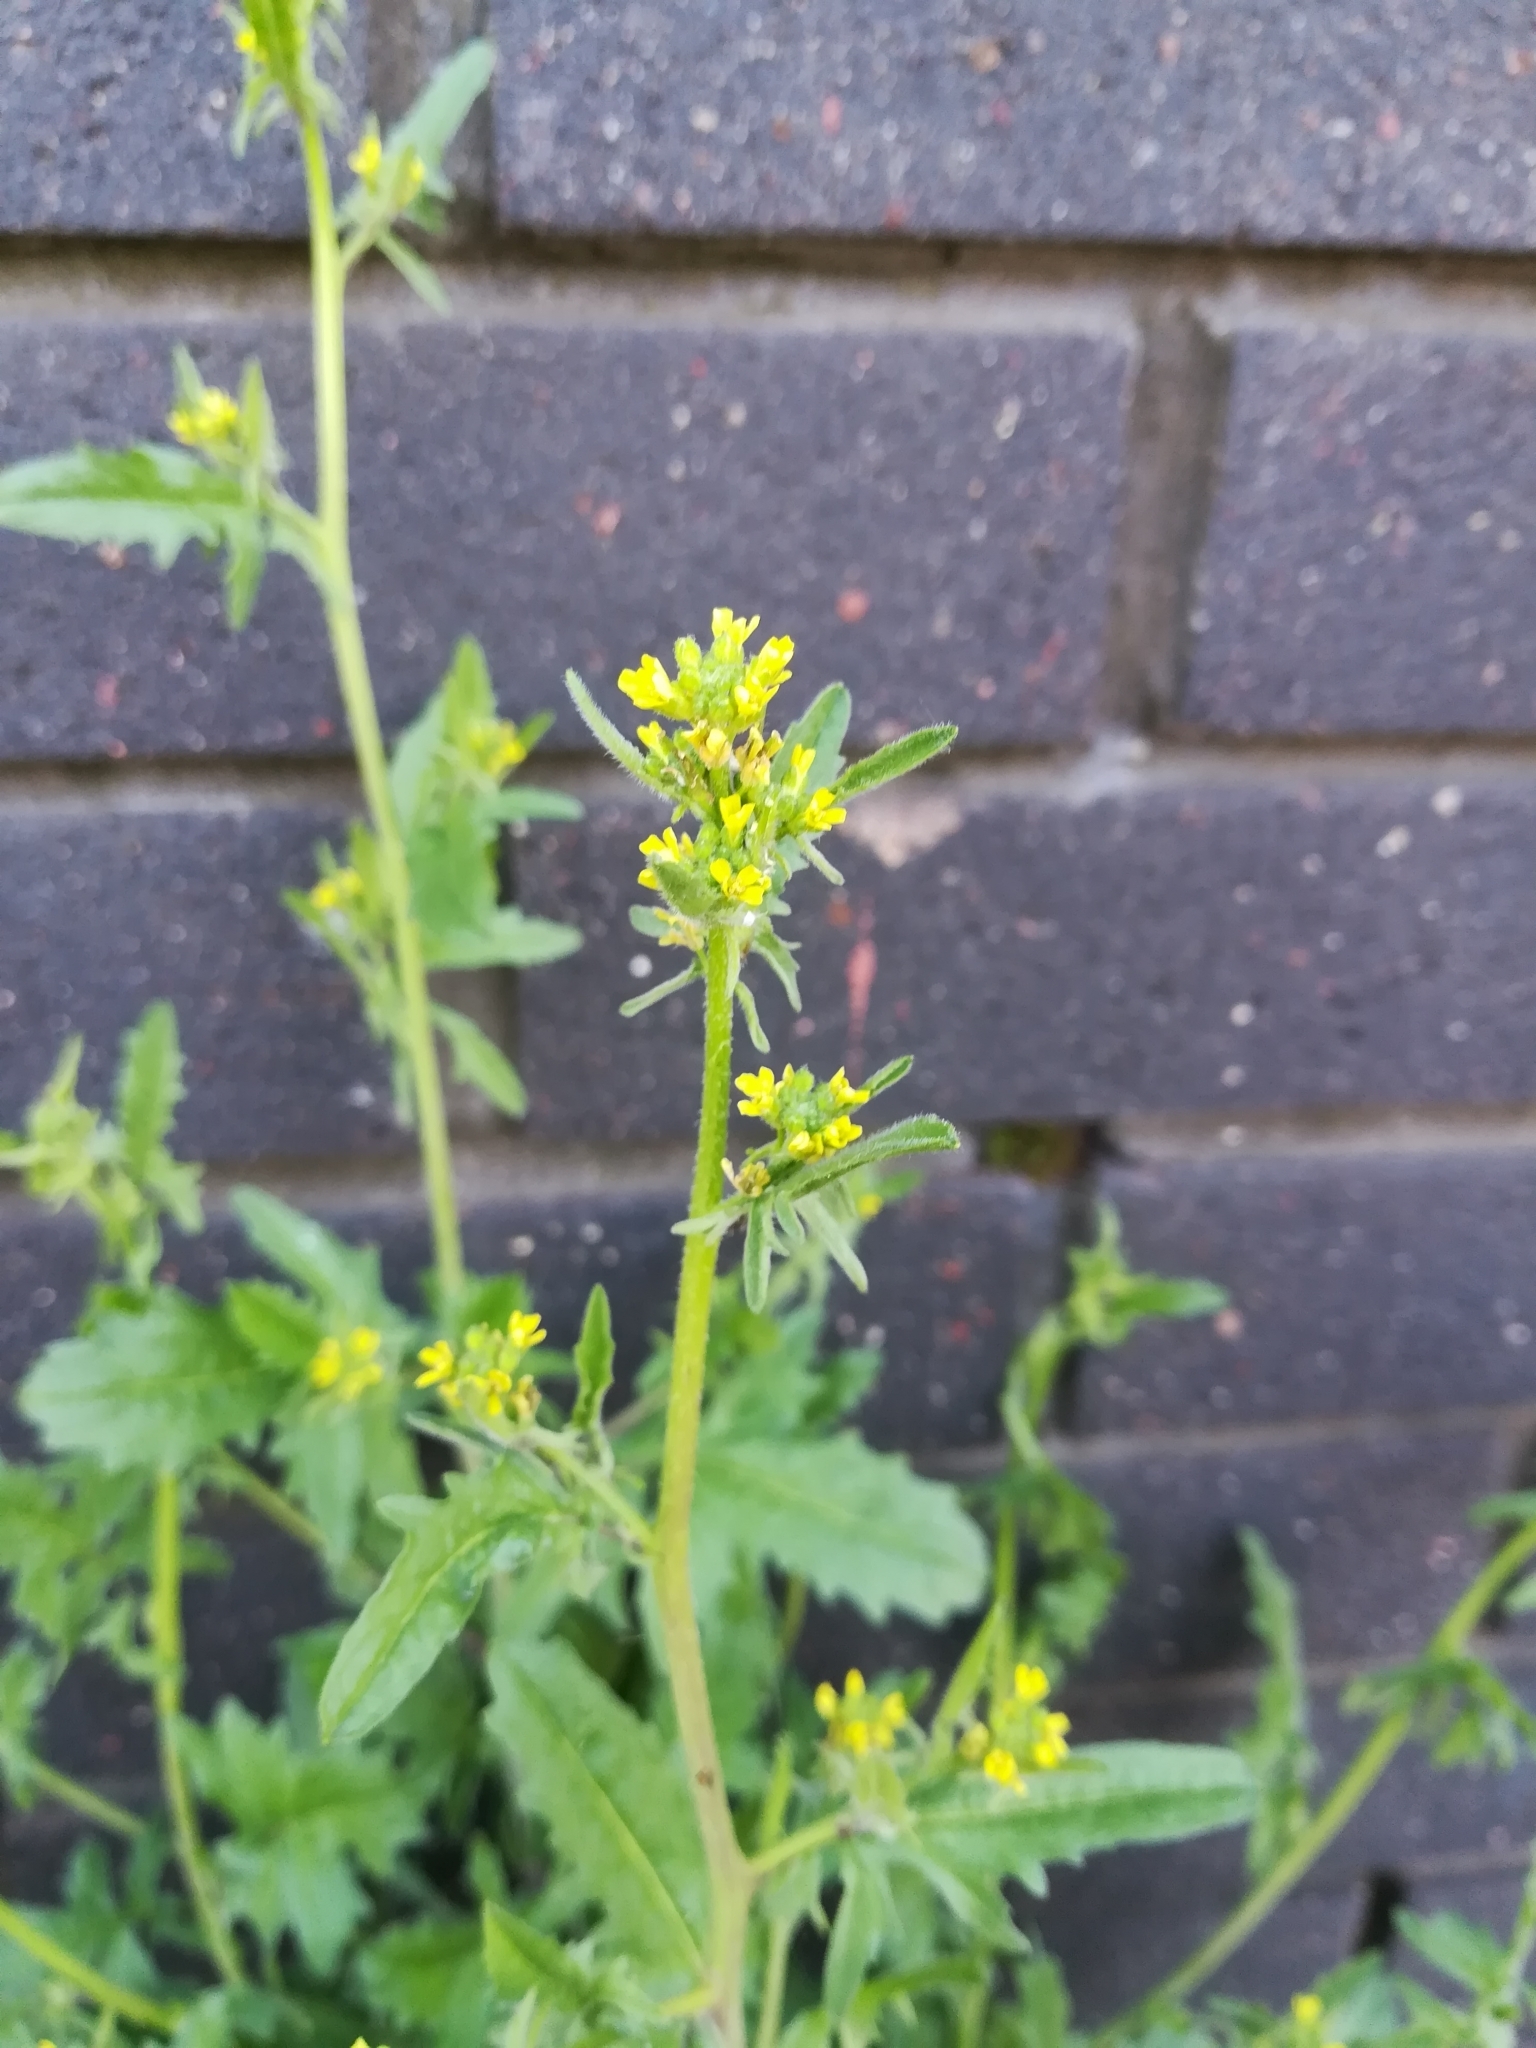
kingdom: Plantae
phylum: Tracheophyta
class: Magnoliopsida
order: Brassicales
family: Brassicaceae
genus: Sisymbrium
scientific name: Sisymbrium officinale
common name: Hedge mustard
